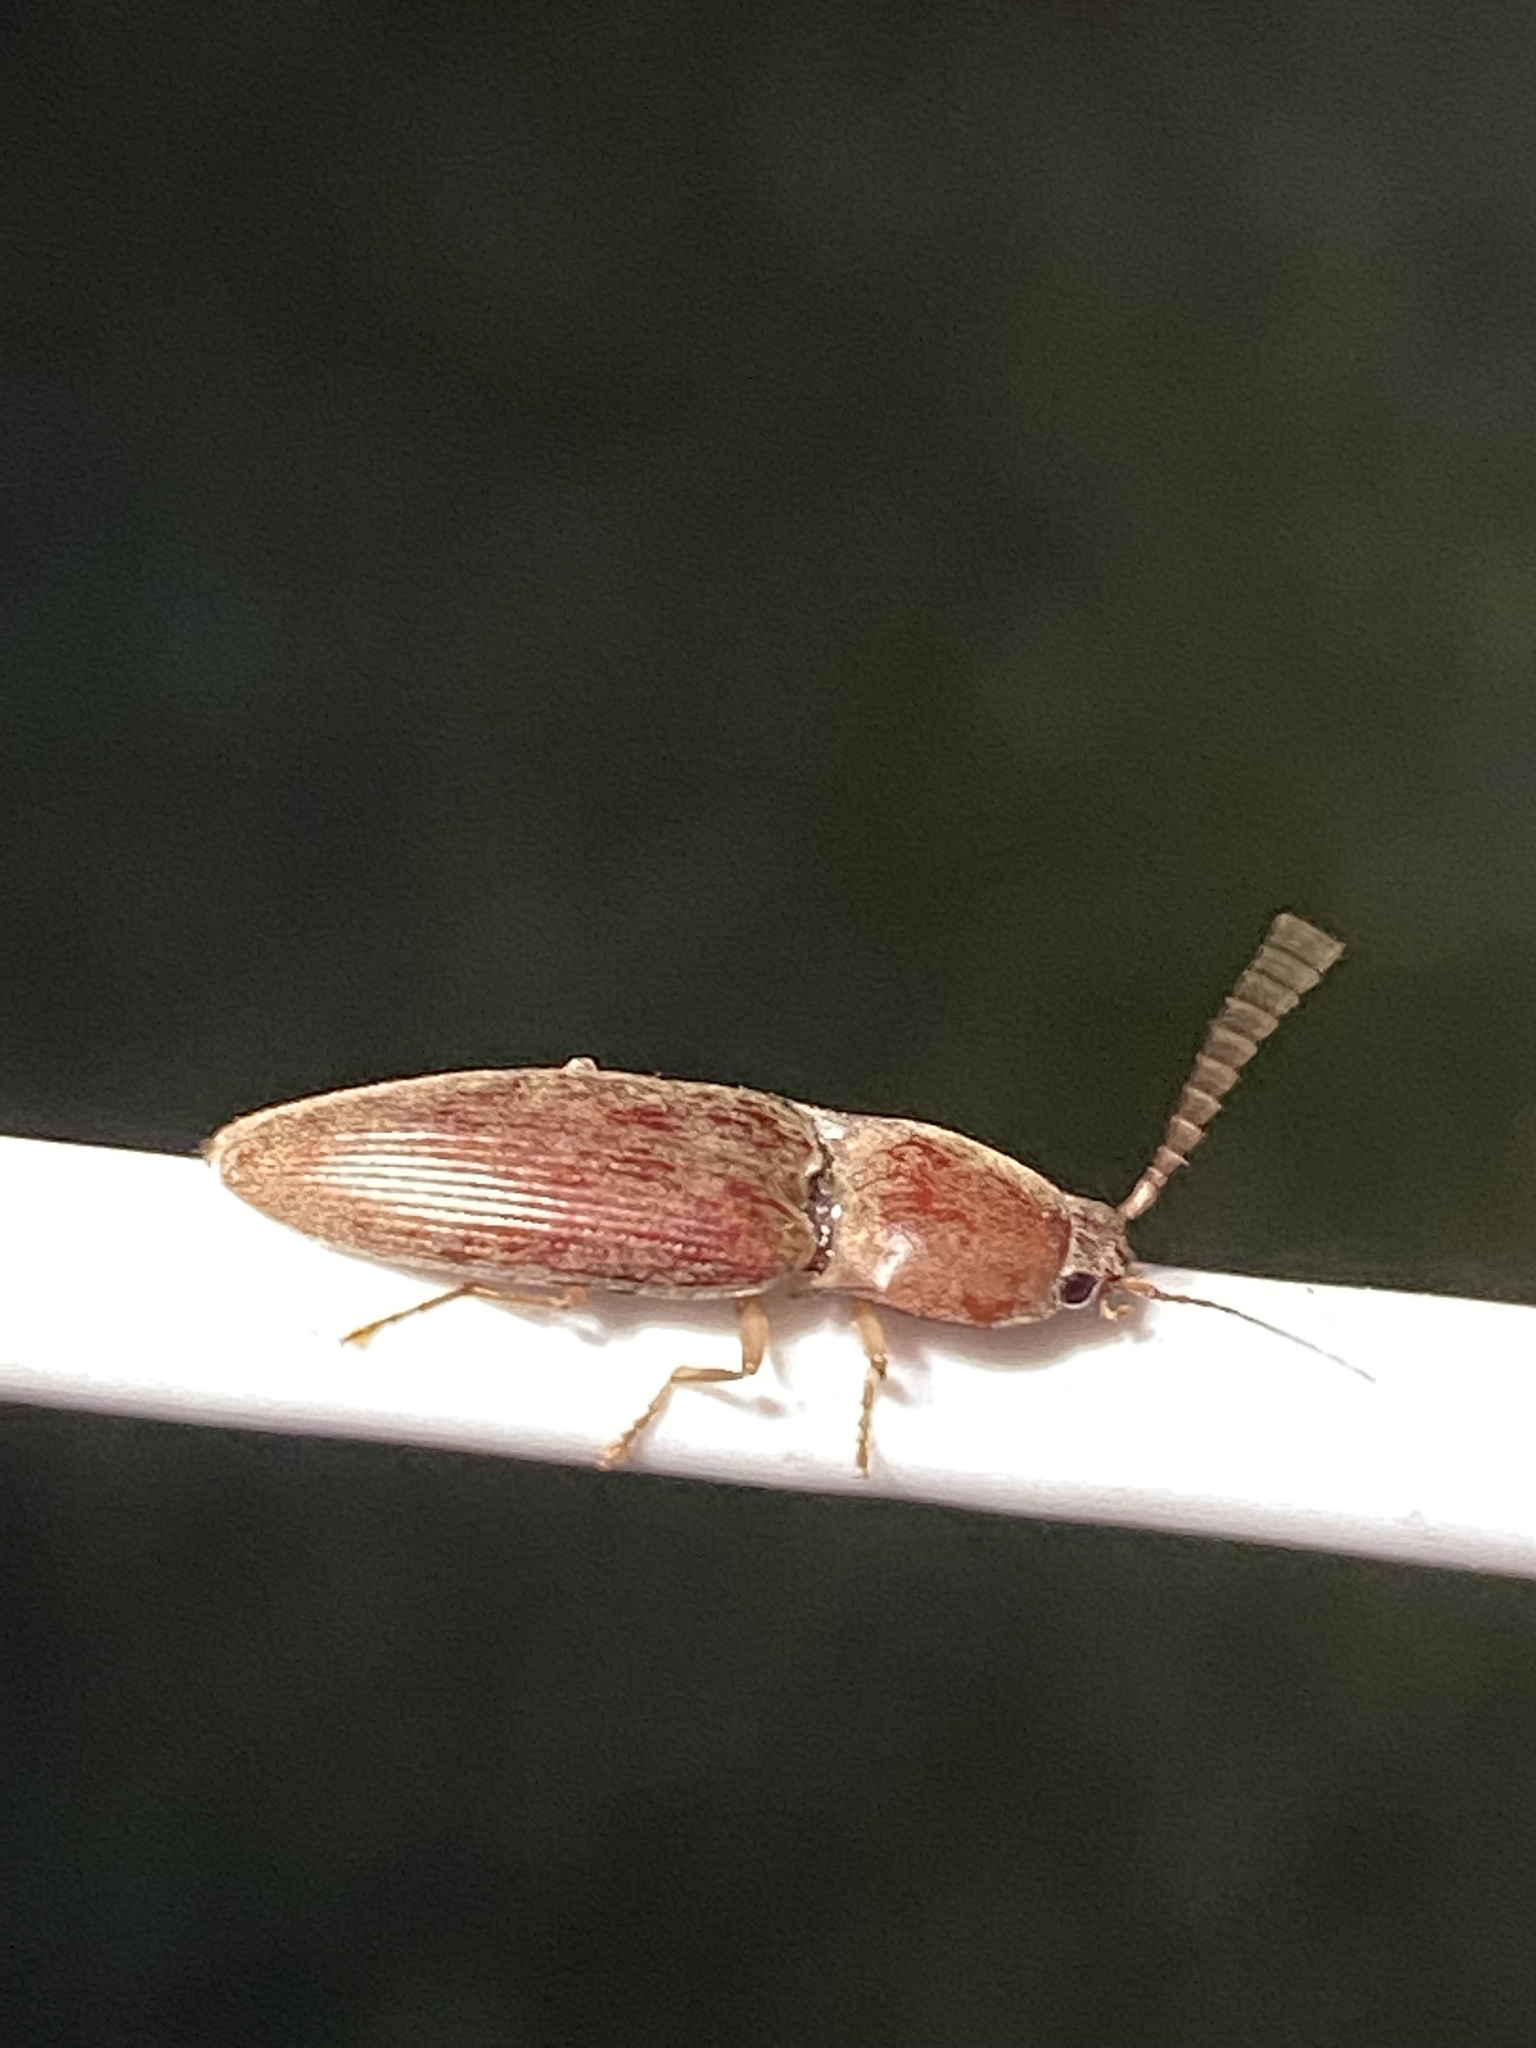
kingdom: Animalia
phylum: Arthropoda
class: Insecta
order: Coleoptera
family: Elateridae
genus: Monocrepidius
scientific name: Monocrepidius lividus
